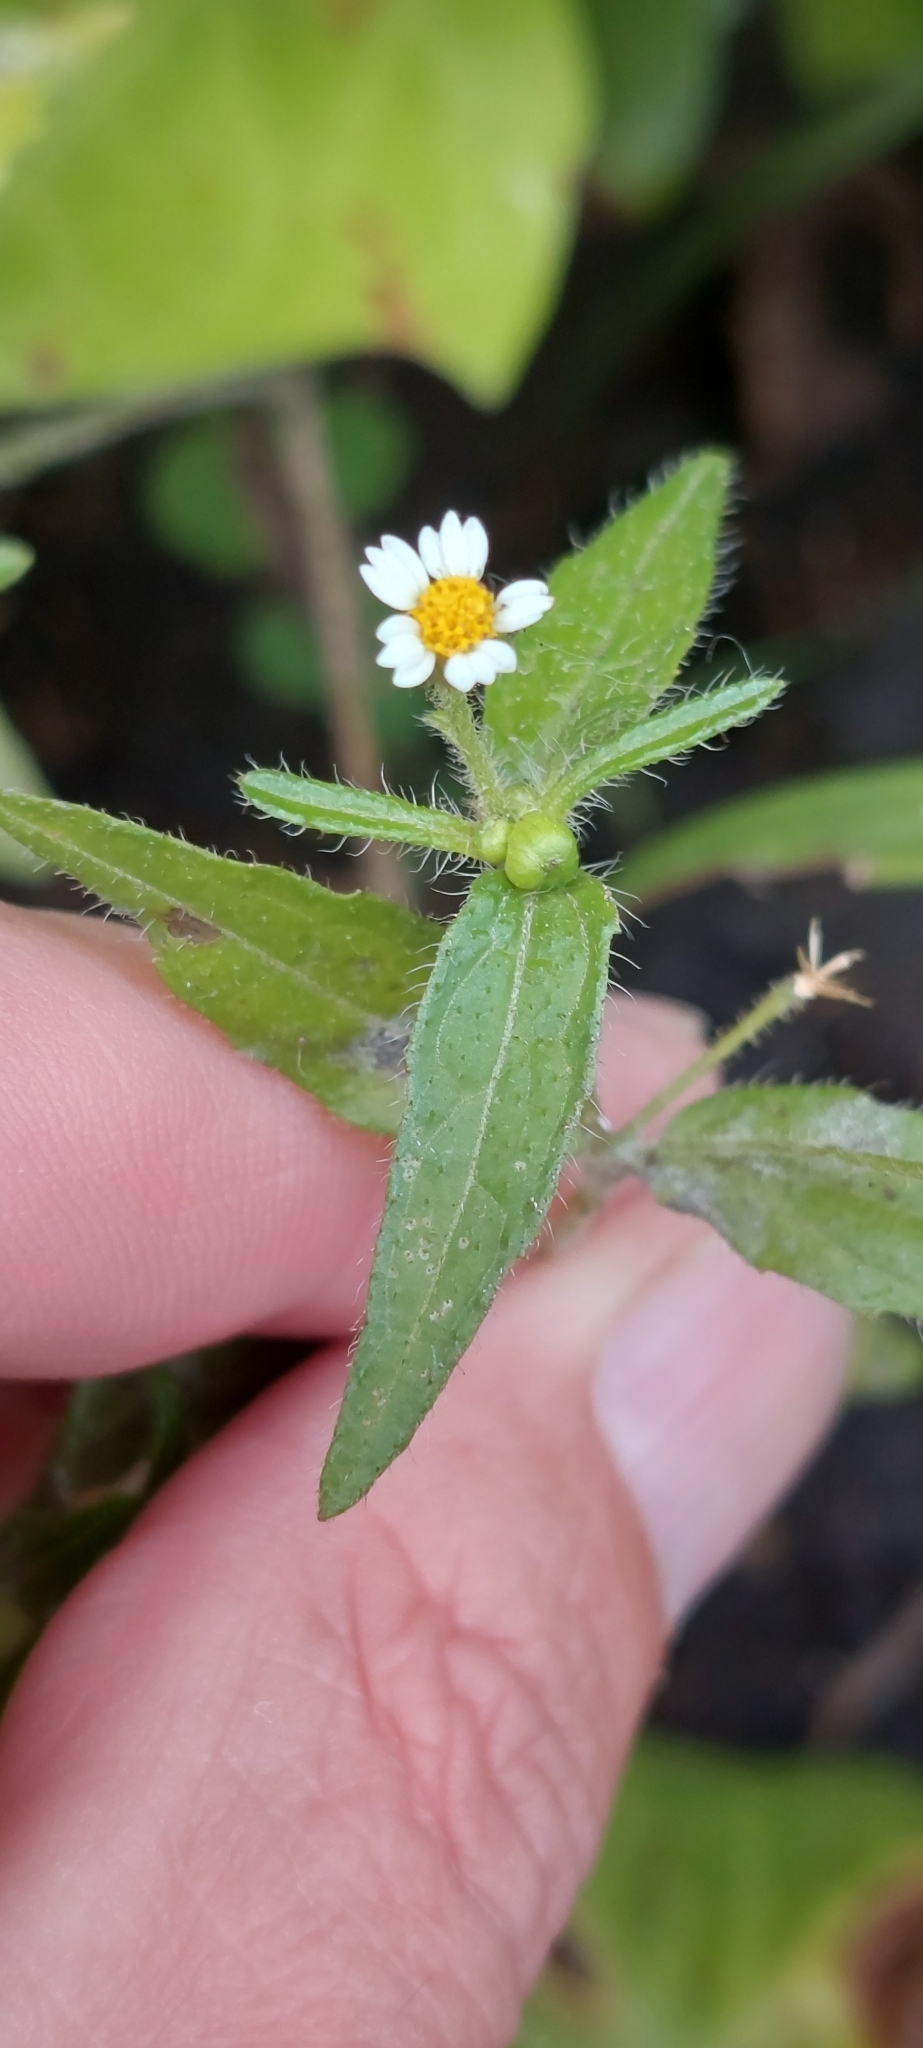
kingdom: Plantae
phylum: Tracheophyta
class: Magnoliopsida
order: Asterales
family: Asteraceae
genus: Galinsoga
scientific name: Galinsoga quadriradiata
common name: Shaggy soldier
